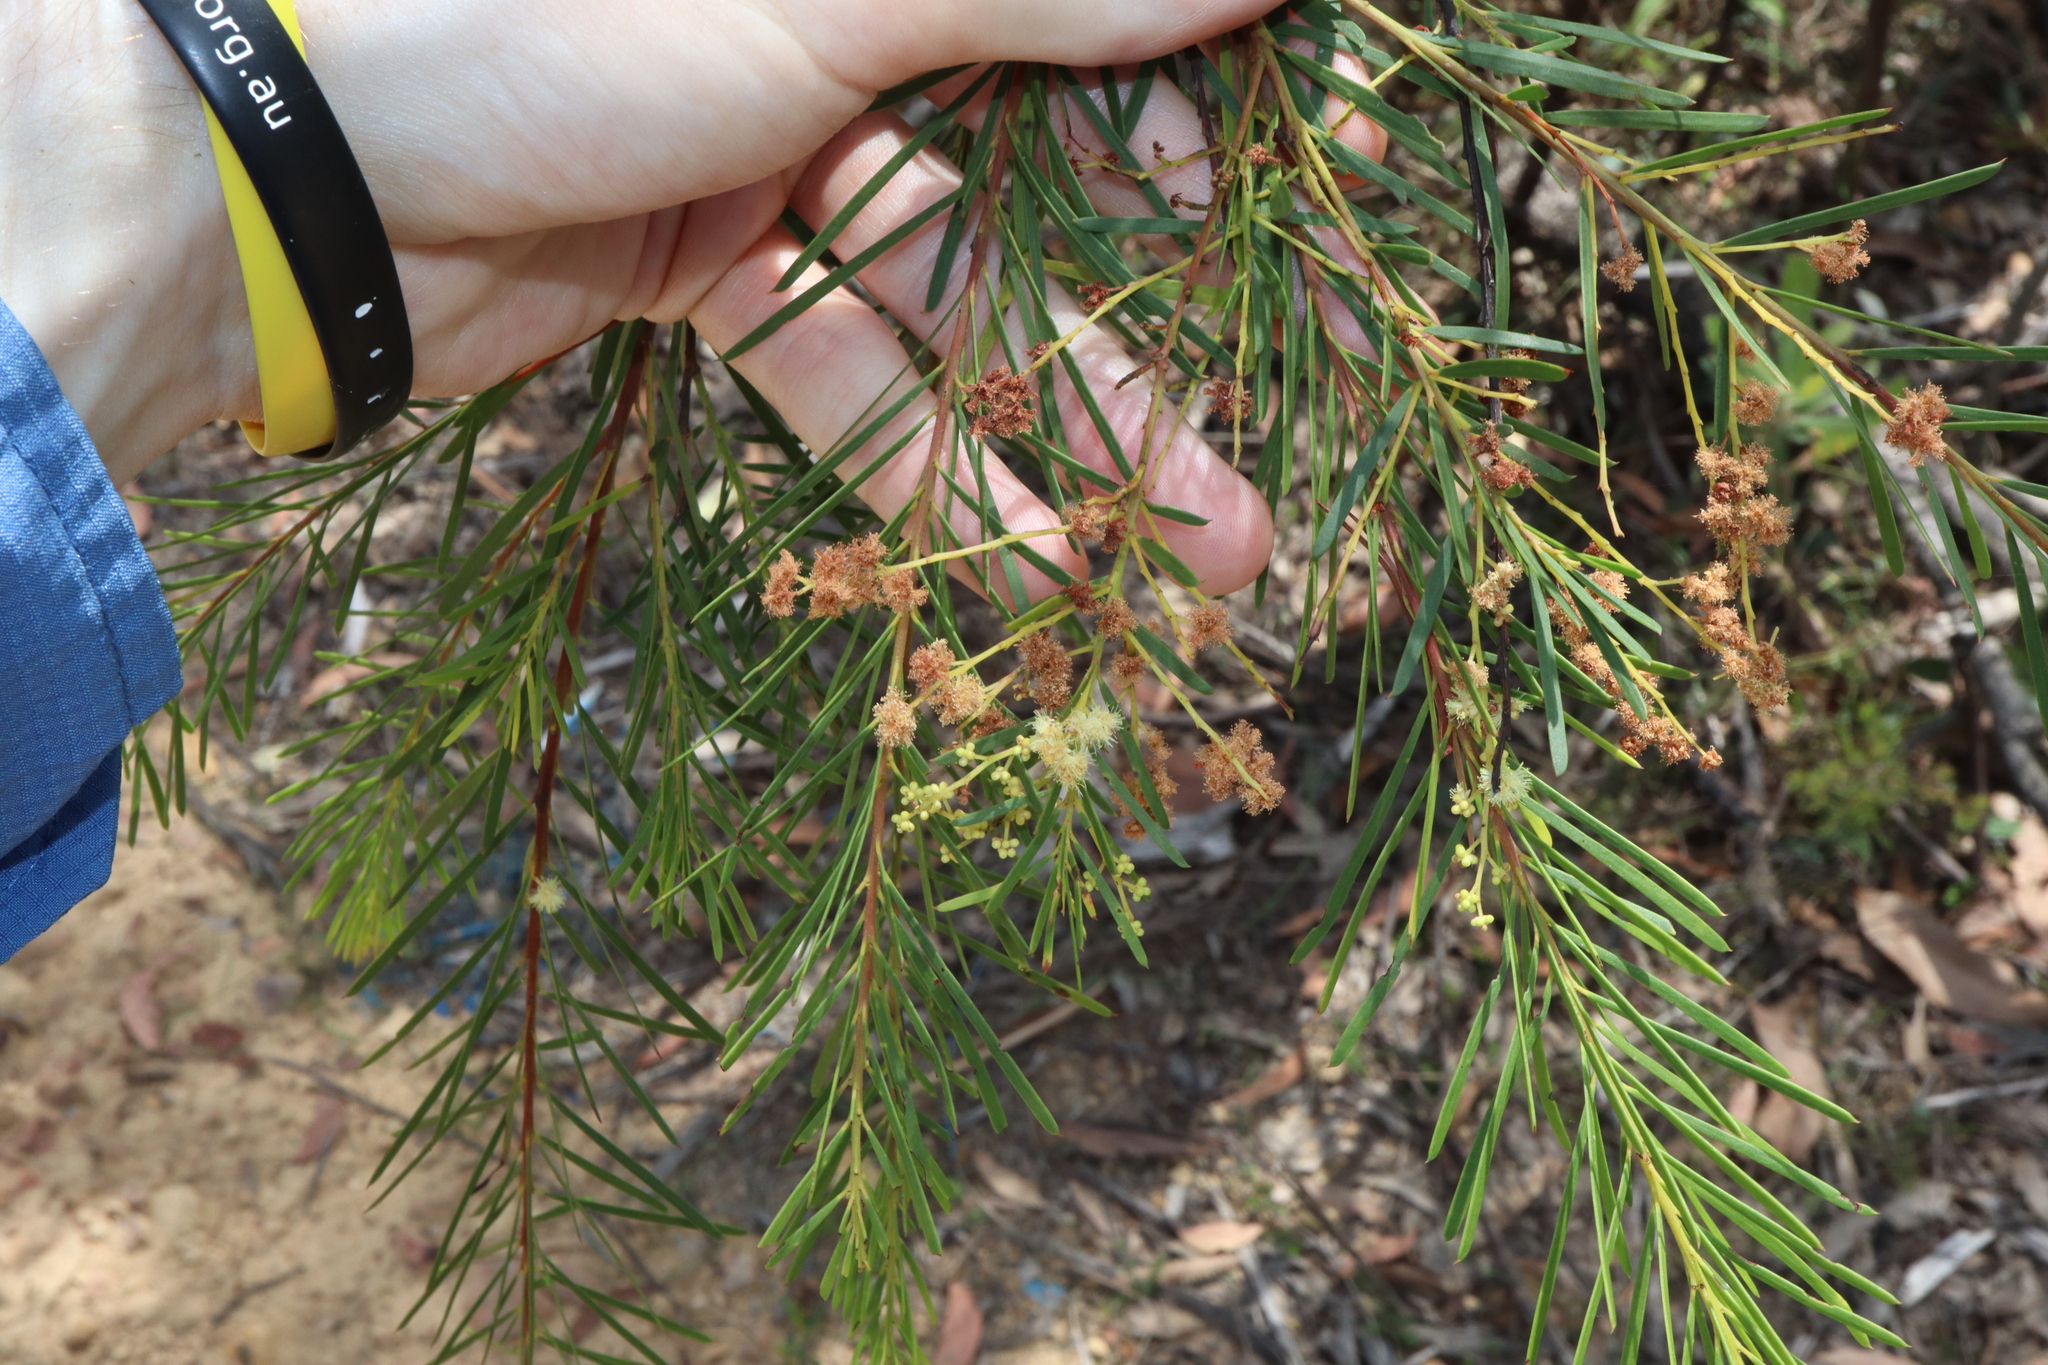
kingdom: Plantae
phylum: Tracheophyta
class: Magnoliopsida
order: Fabales
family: Fabaceae
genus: Acacia
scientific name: Acacia linifolia
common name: White wattle
